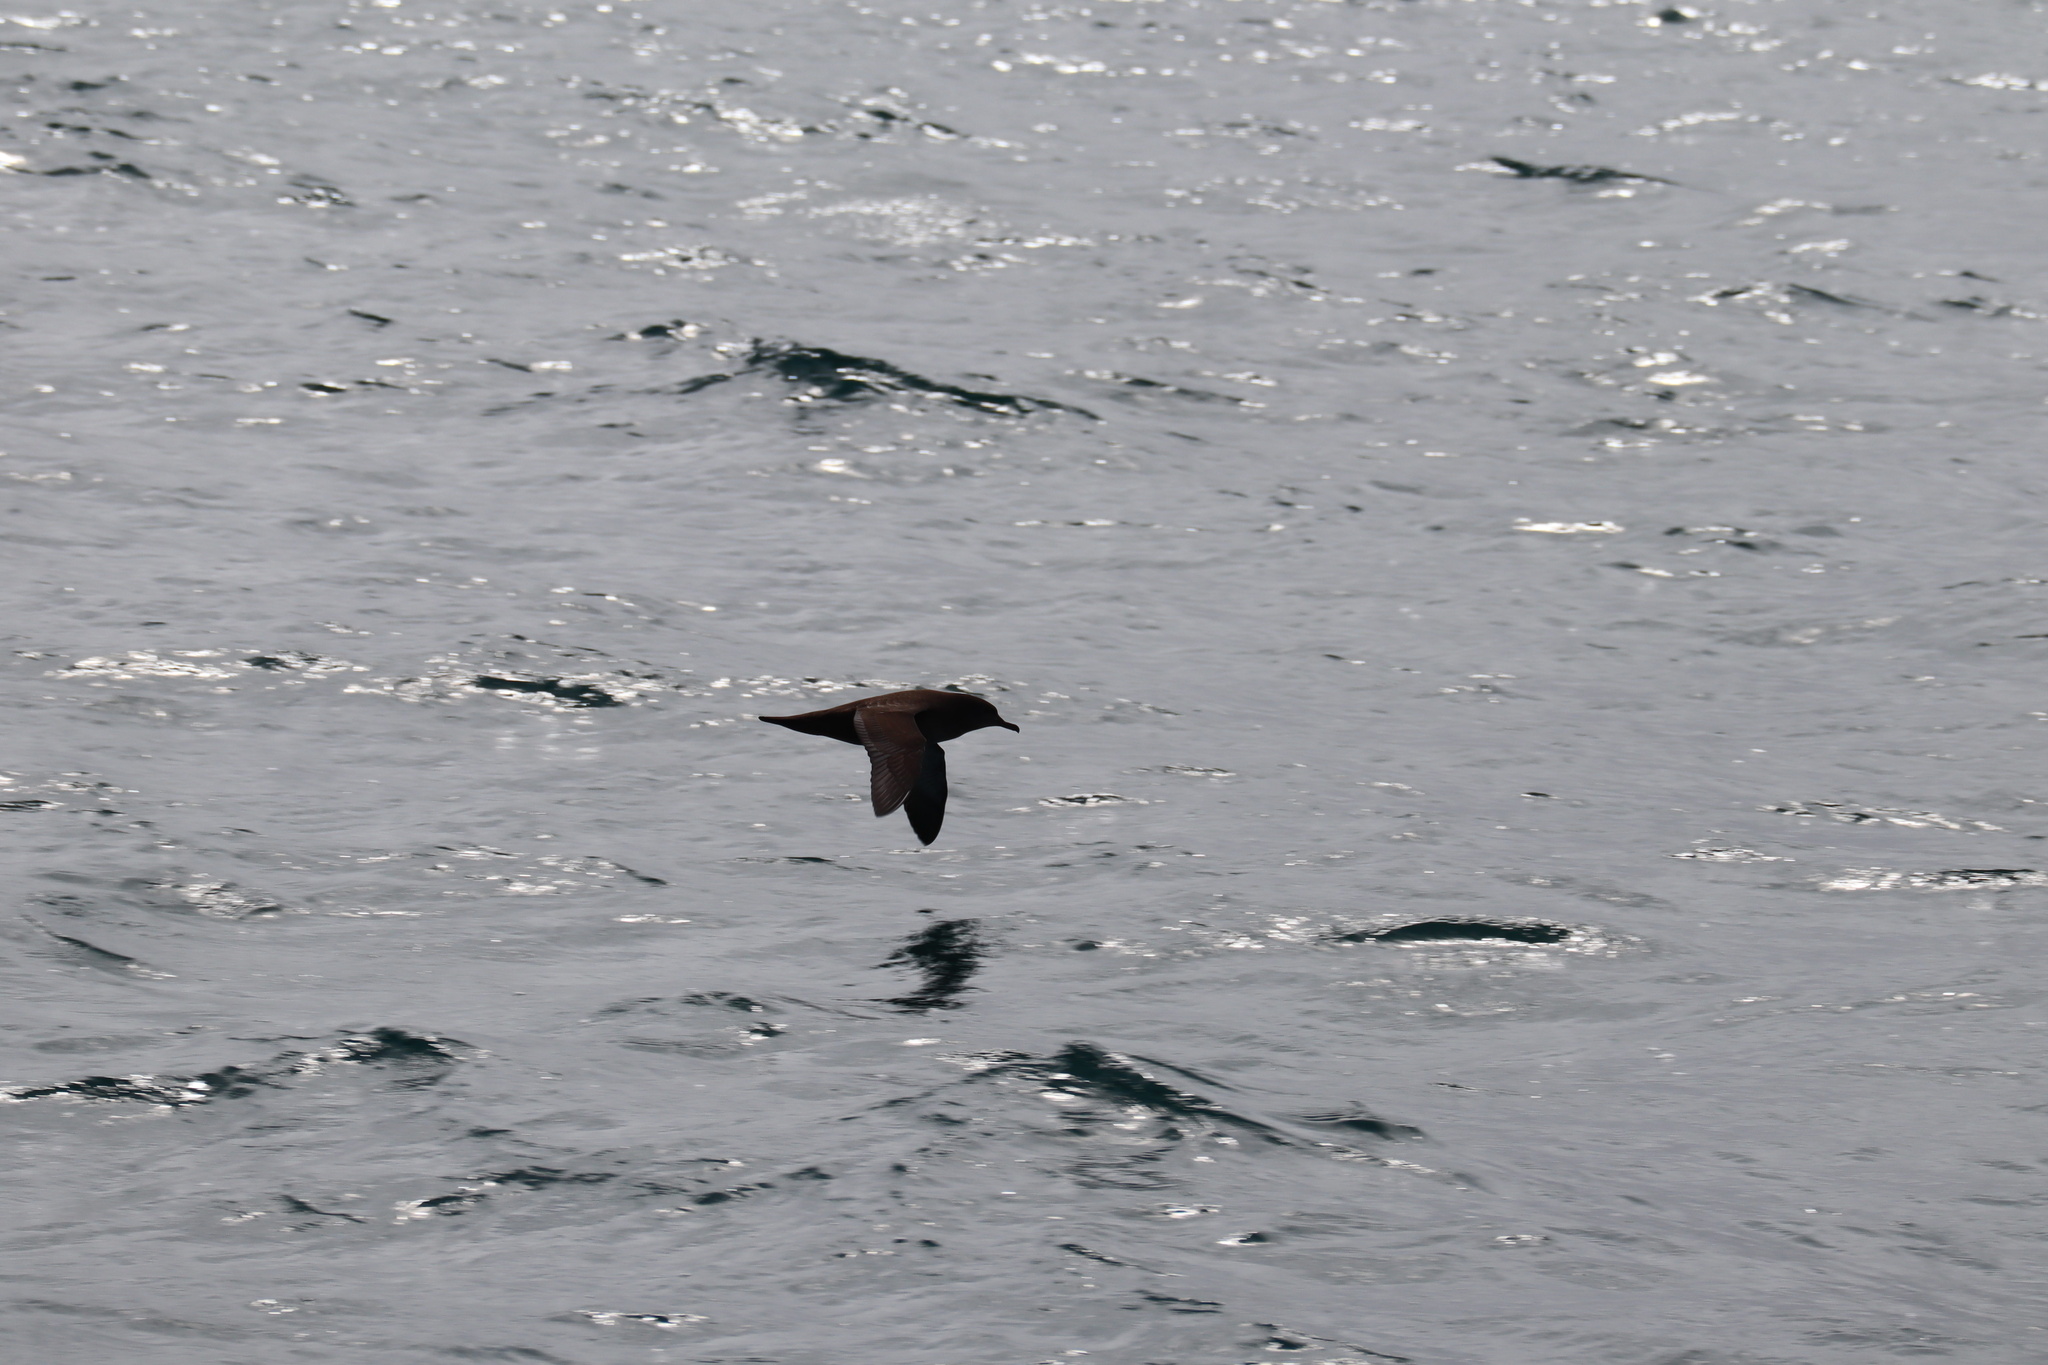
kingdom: Animalia
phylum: Chordata
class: Aves
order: Procellariiformes
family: Procellariidae
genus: Puffinus
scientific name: Puffinus griseus
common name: Sooty shearwater
